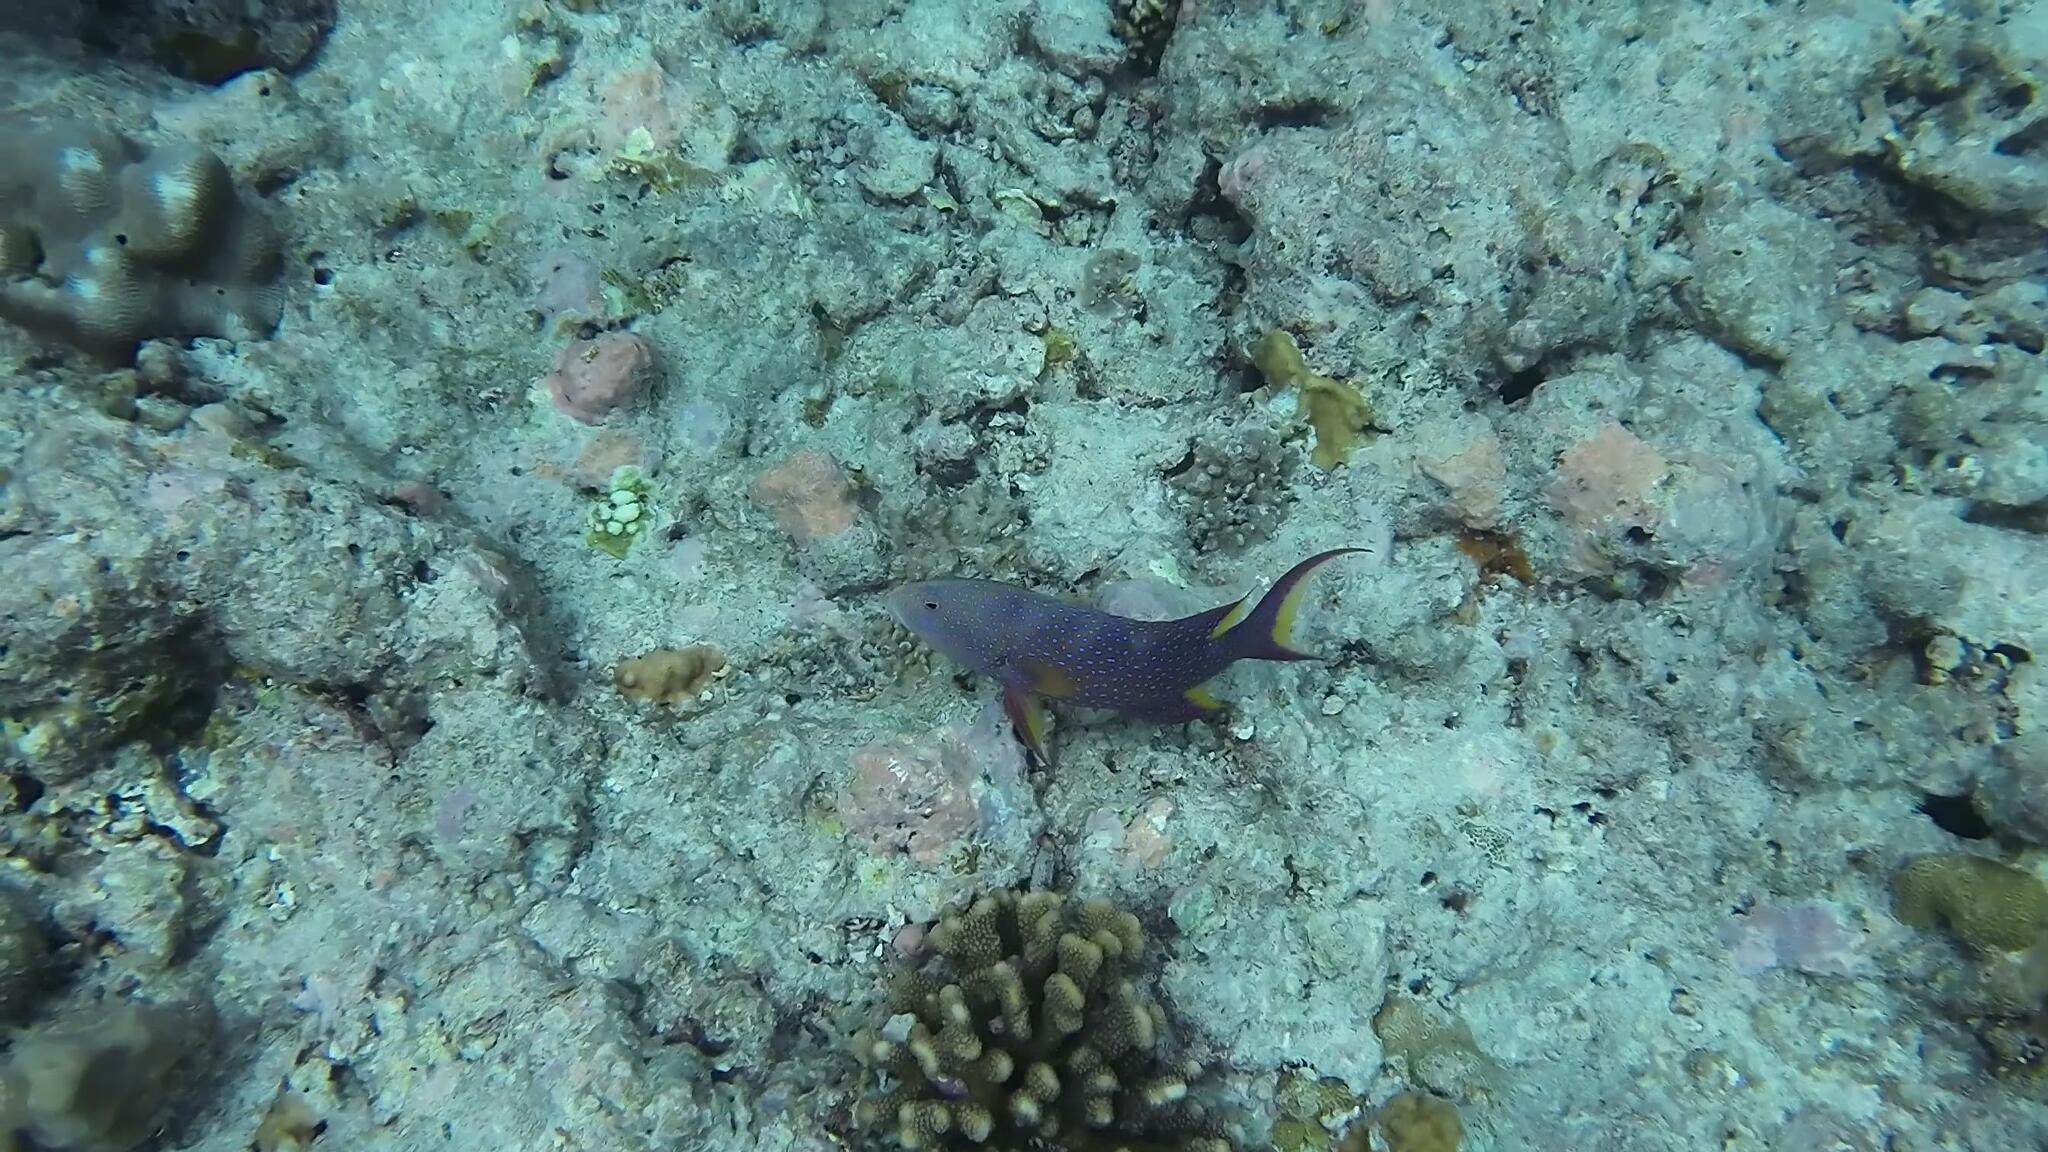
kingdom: Animalia
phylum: Chordata
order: Perciformes
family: Serranidae
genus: Variola
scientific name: Variola louti
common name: Yellow-edged lyretail
